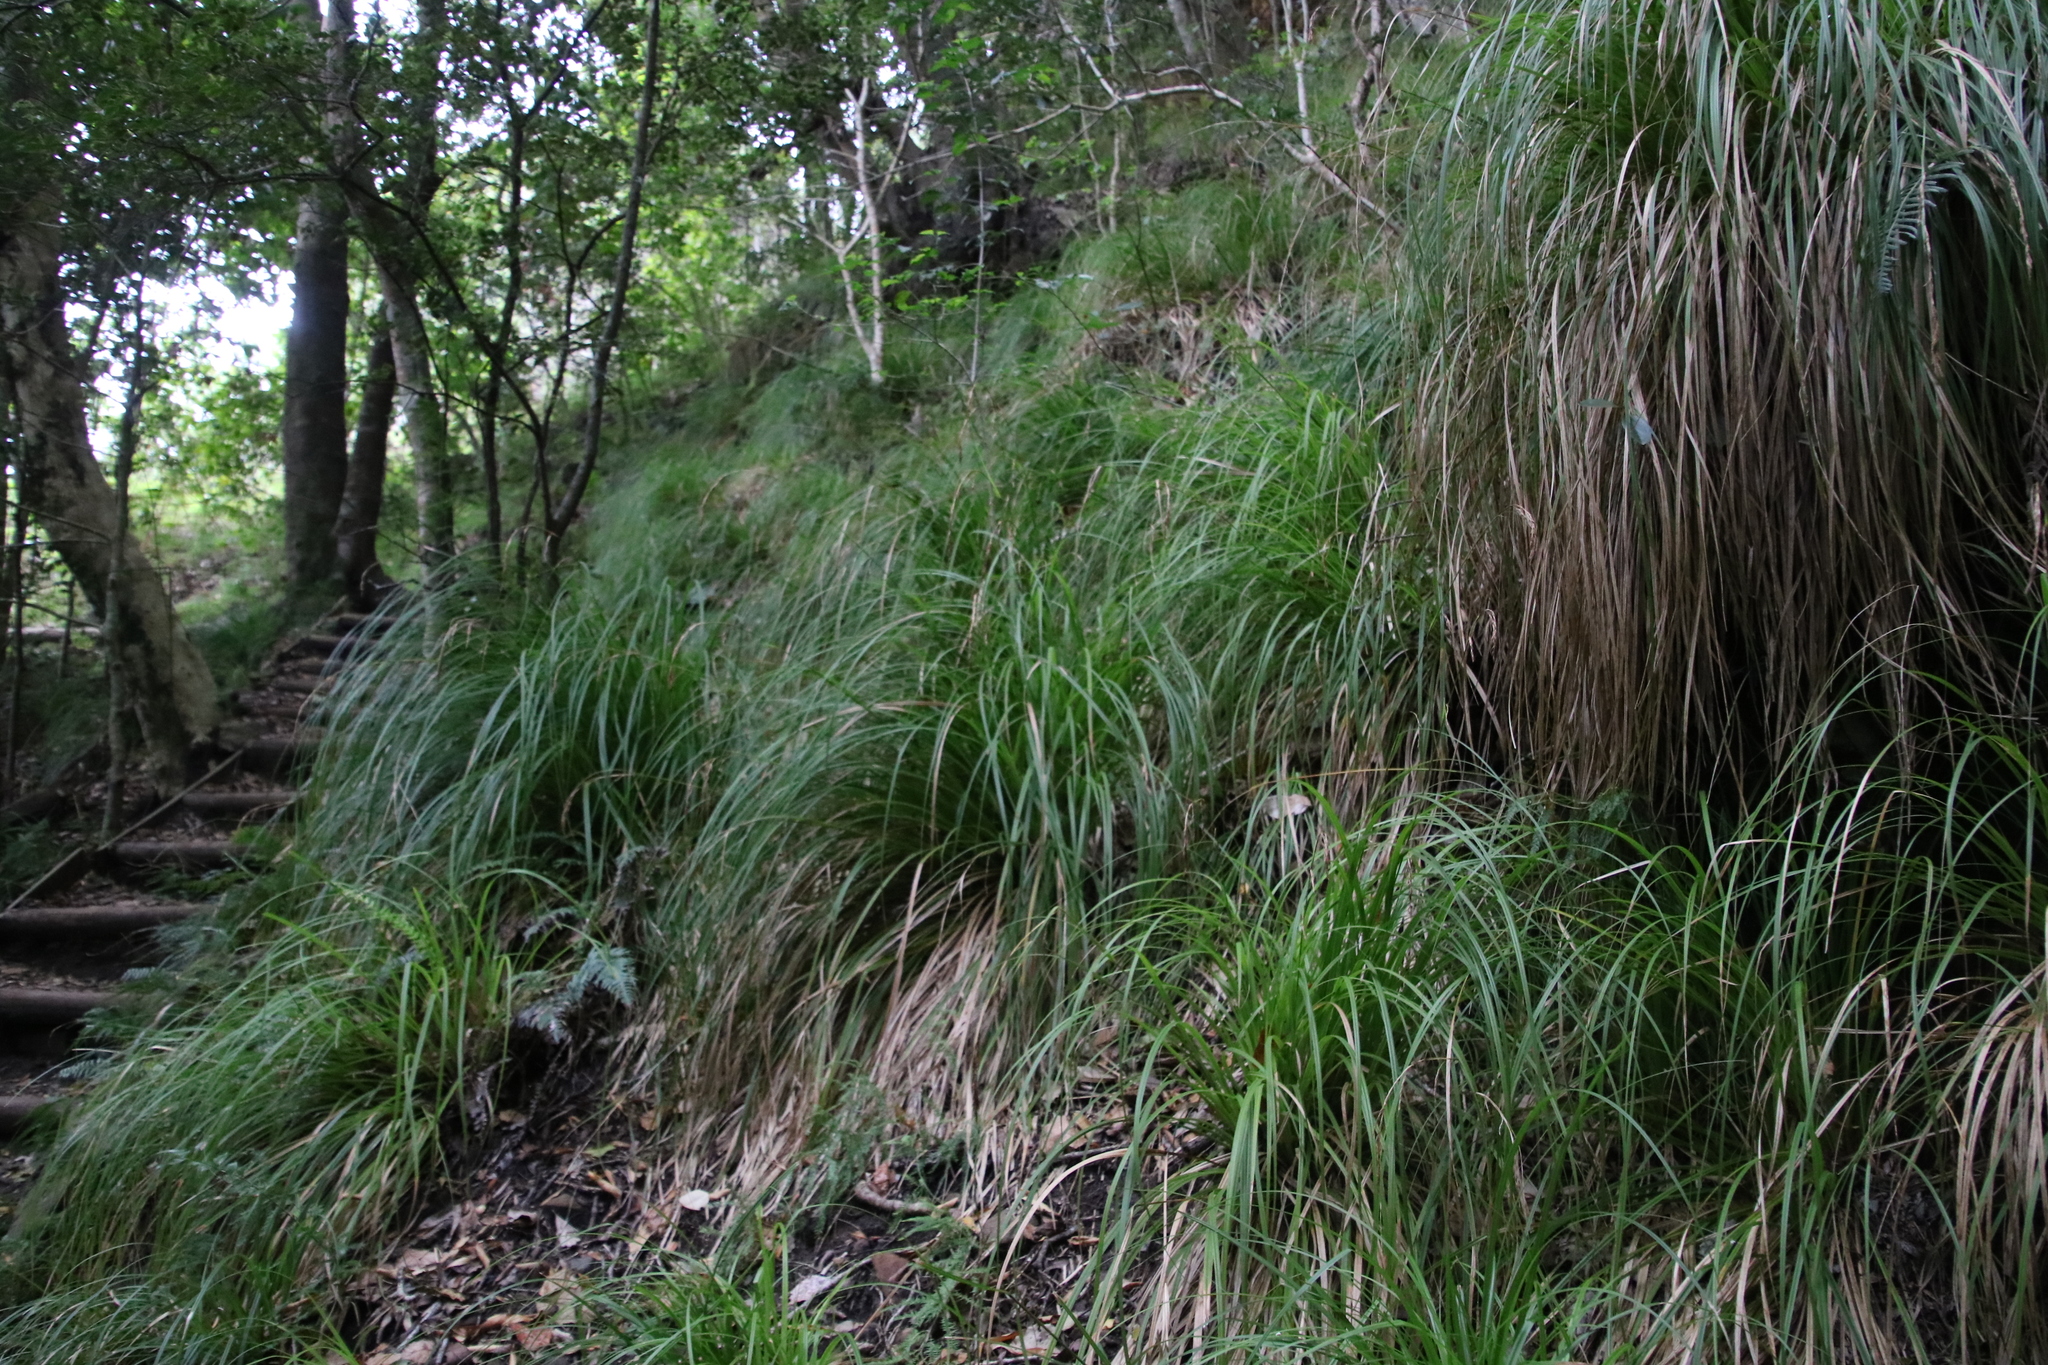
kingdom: Plantae
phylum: Tracheophyta
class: Liliopsida
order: Poales
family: Cyperaceae
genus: Carex
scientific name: Carex lancea
